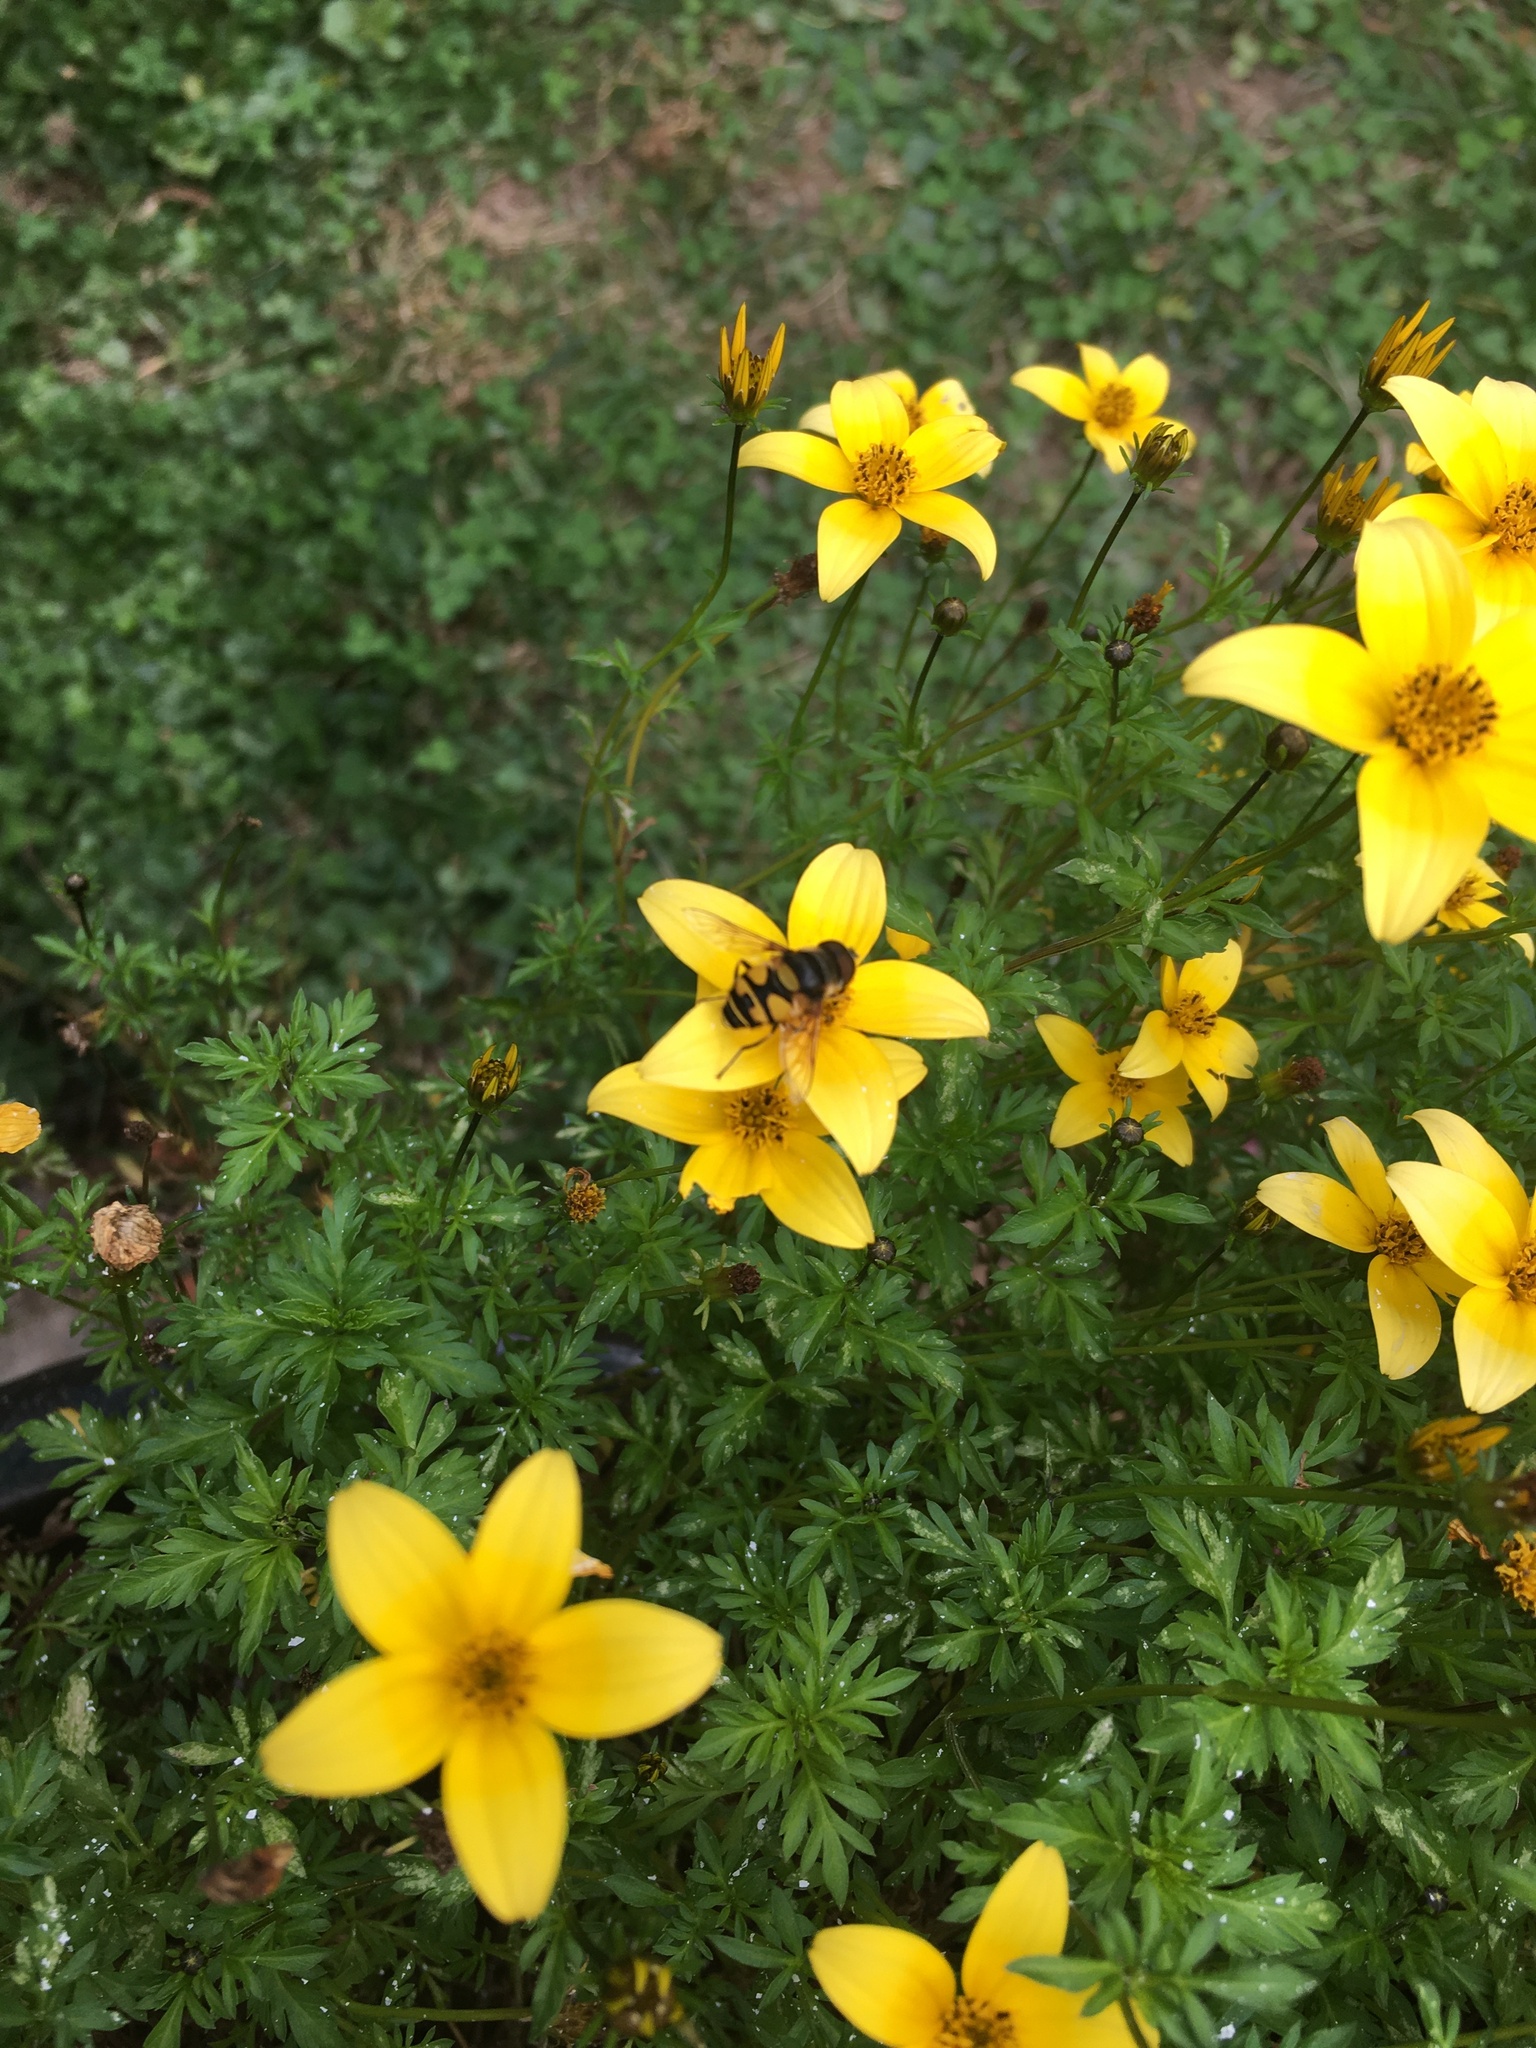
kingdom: Animalia
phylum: Arthropoda
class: Insecta
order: Diptera
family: Syrphidae
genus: Eristalis
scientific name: Eristalis transversa
